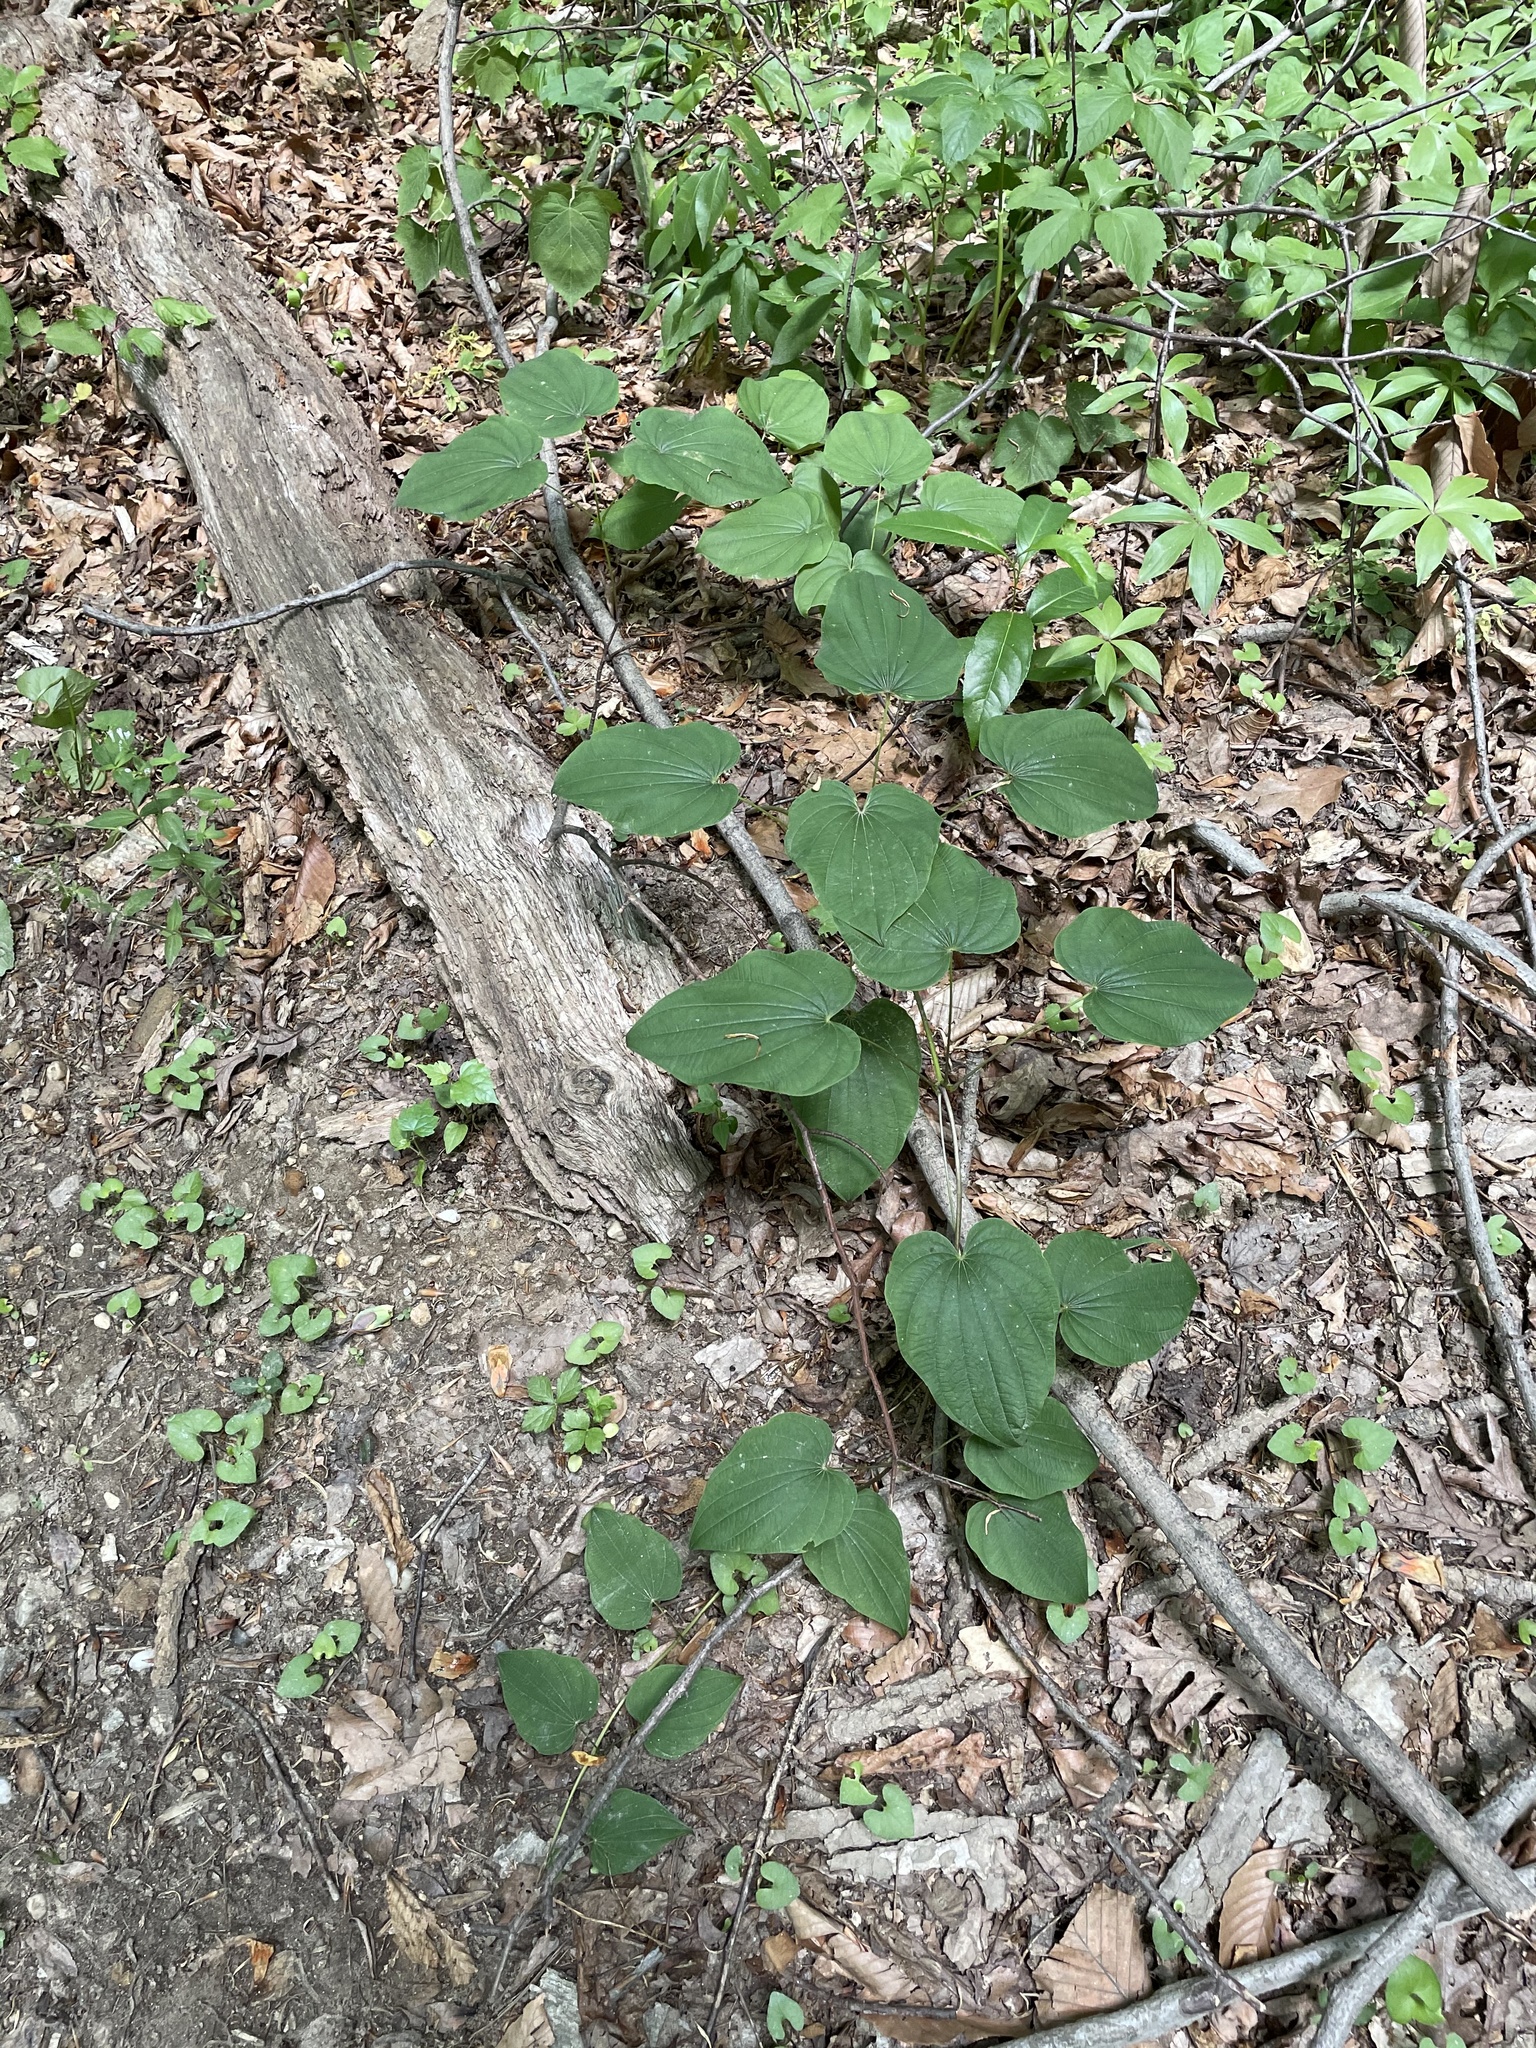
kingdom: Plantae
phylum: Tracheophyta
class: Liliopsida
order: Dioscoreales
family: Dioscoreaceae
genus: Dioscorea
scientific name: Dioscorea villosa
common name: Wild yam
